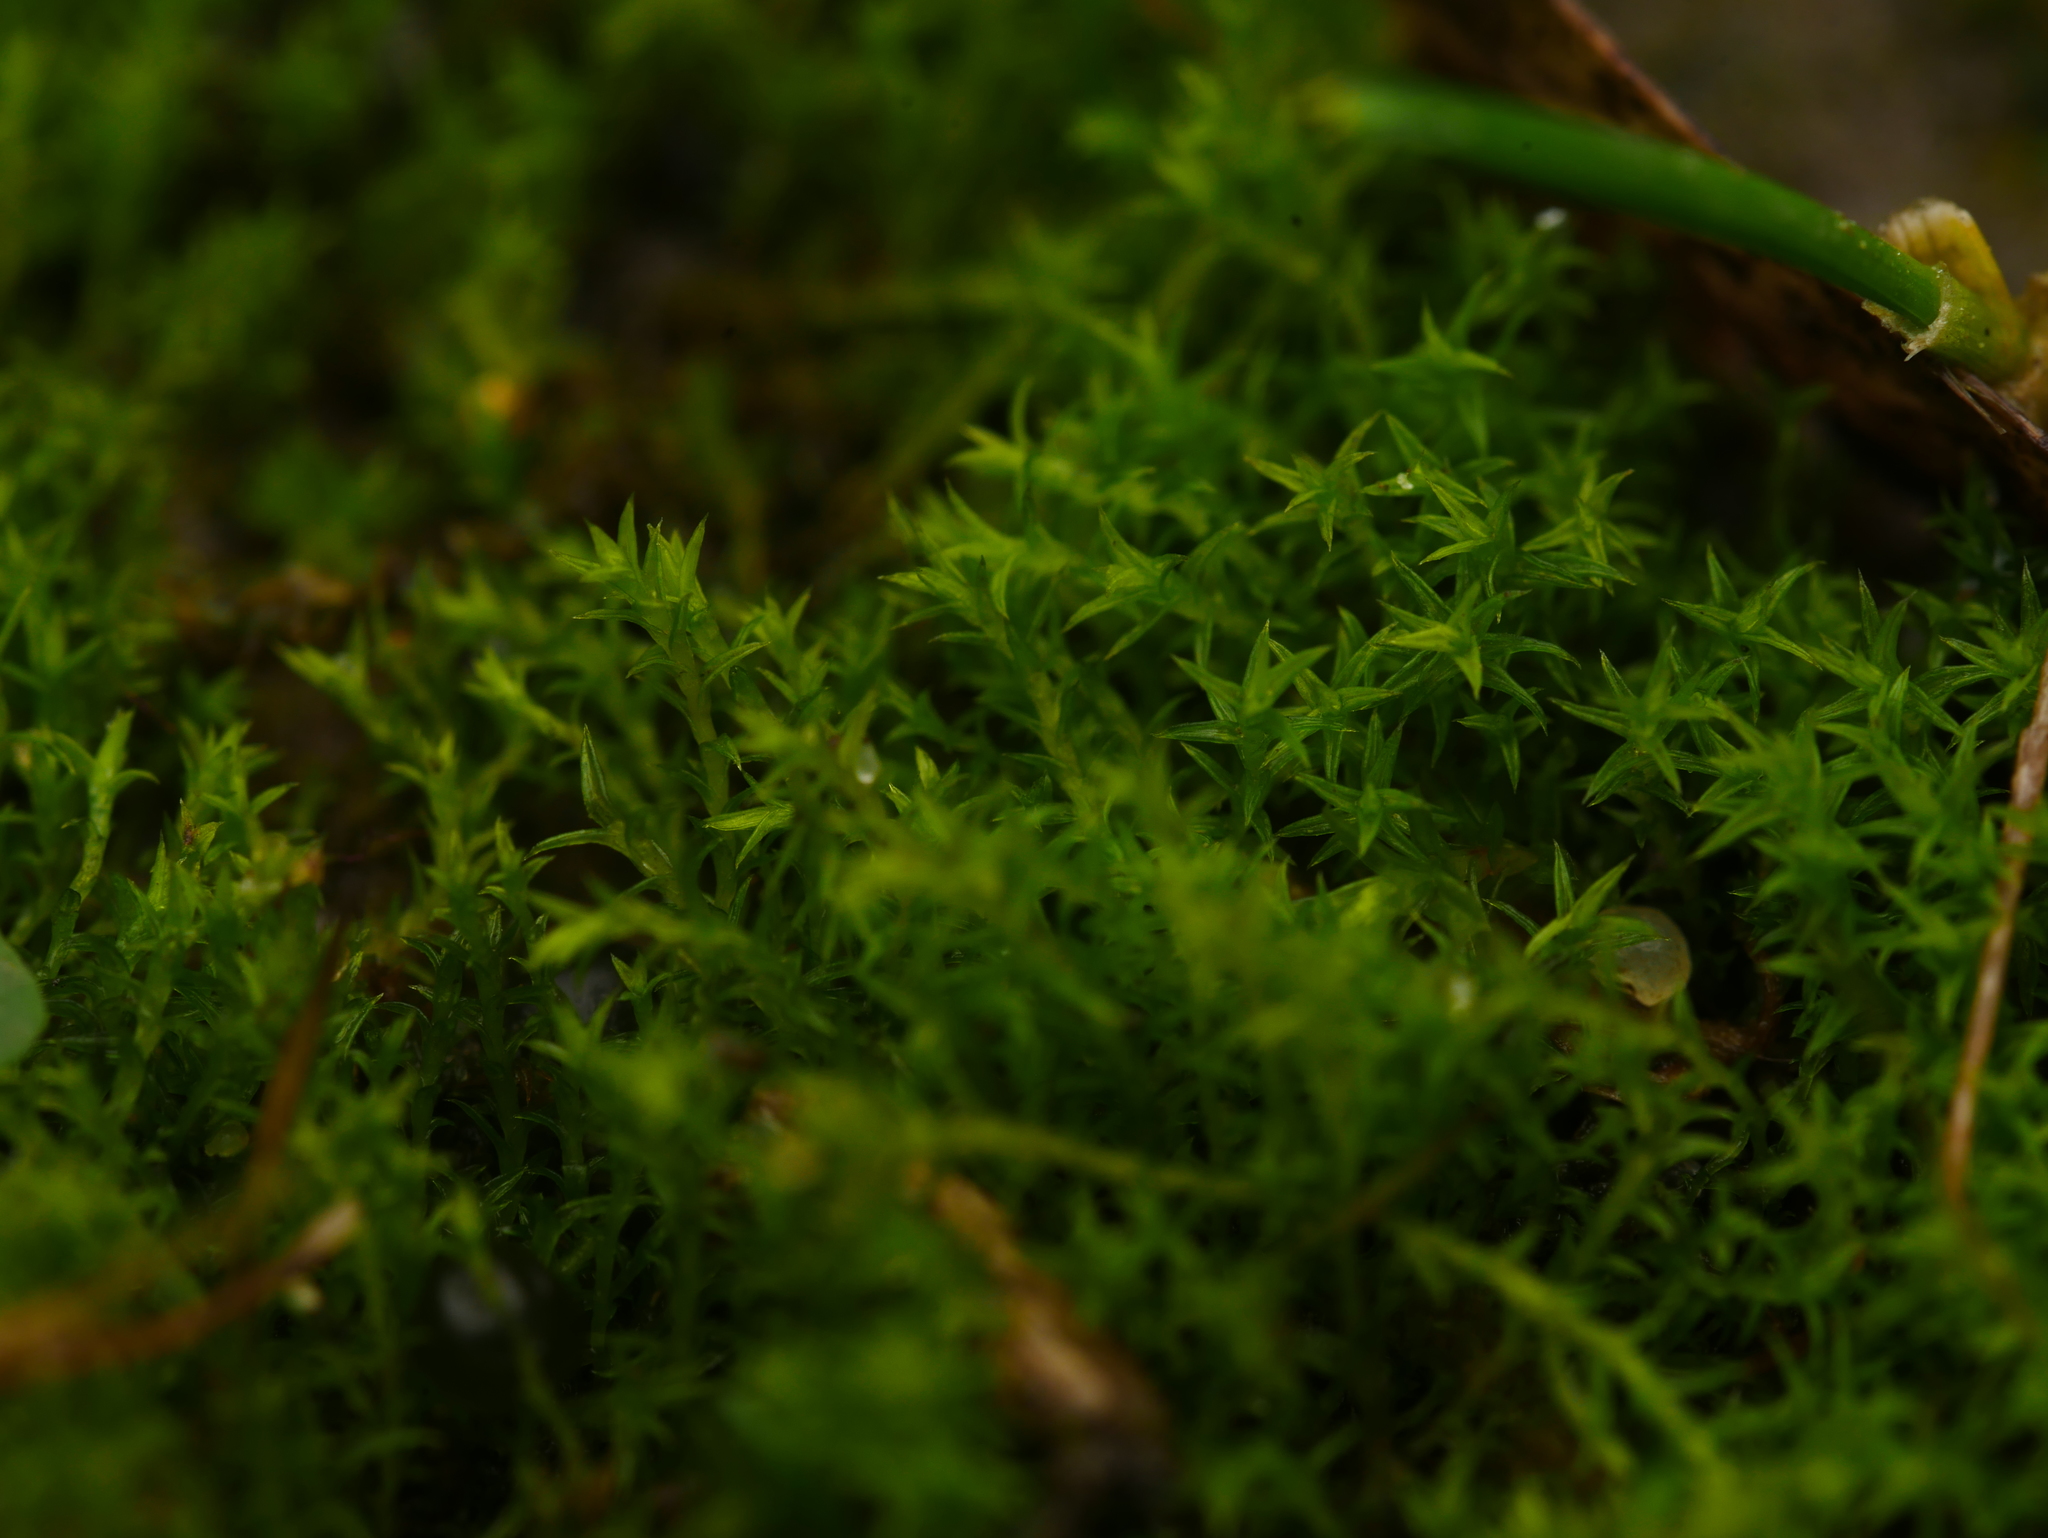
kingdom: Plantae
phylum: Bryophyta
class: Bryopsida
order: Dicranales
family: Ditrichaceae
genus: Ceratodon
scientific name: Ceratodon purpureus
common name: Redshank
